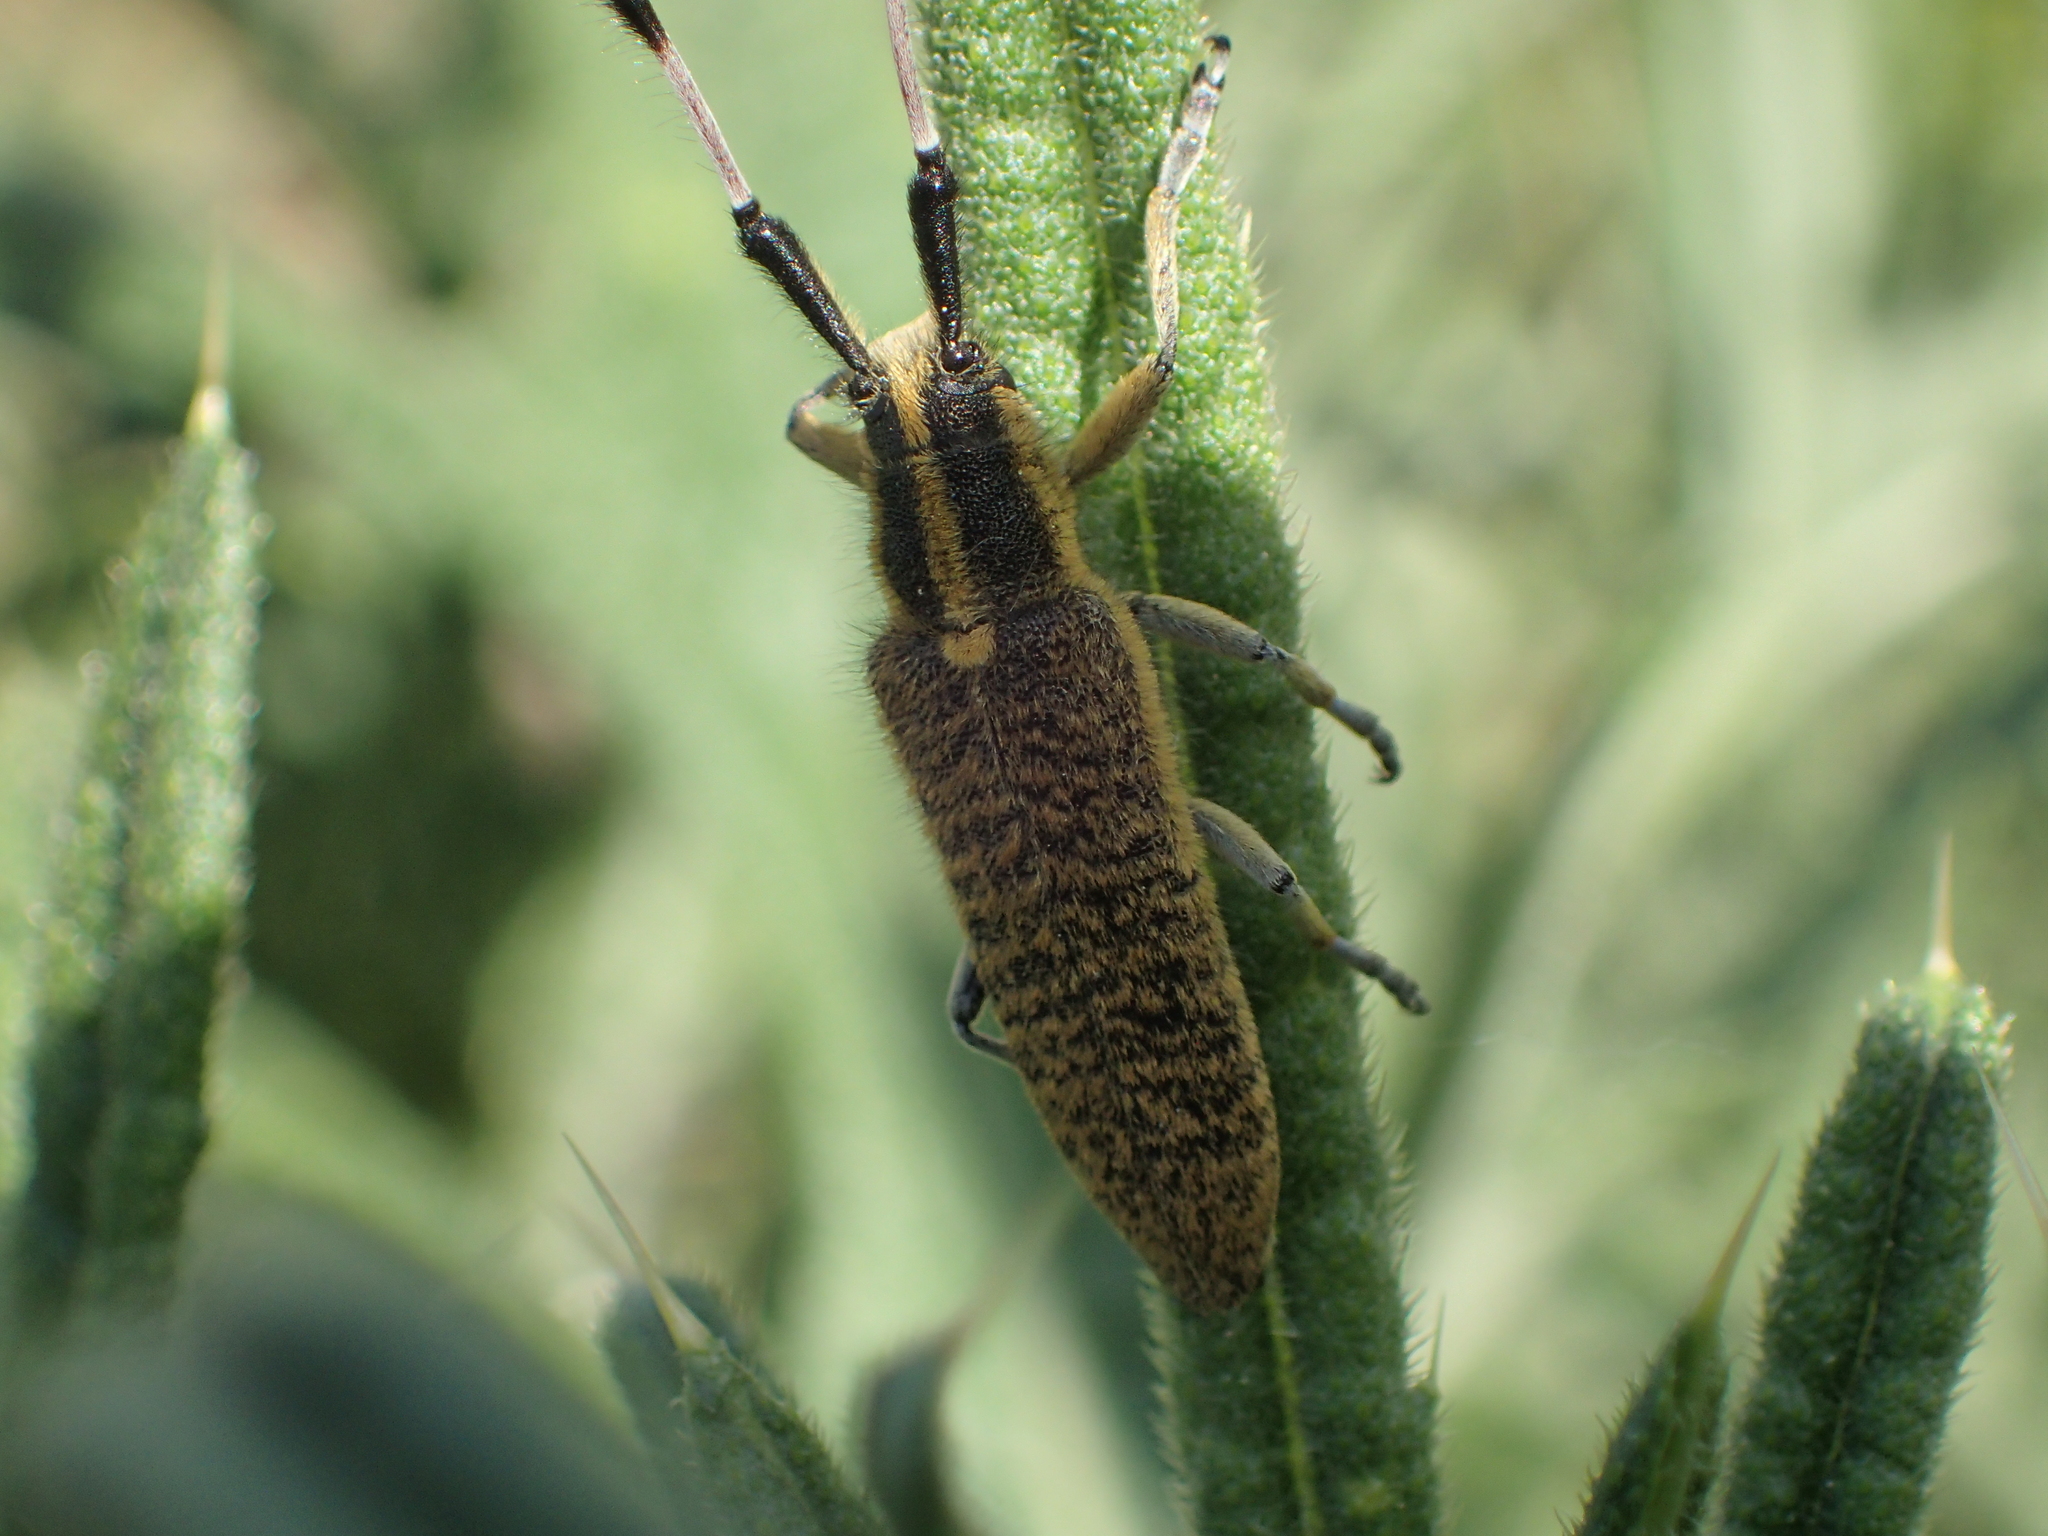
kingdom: Animalia
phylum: Arthropoda
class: Insecta
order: Coleoptera
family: Cerambycidae
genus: Agapanthia
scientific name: Agapanthia dahlii
